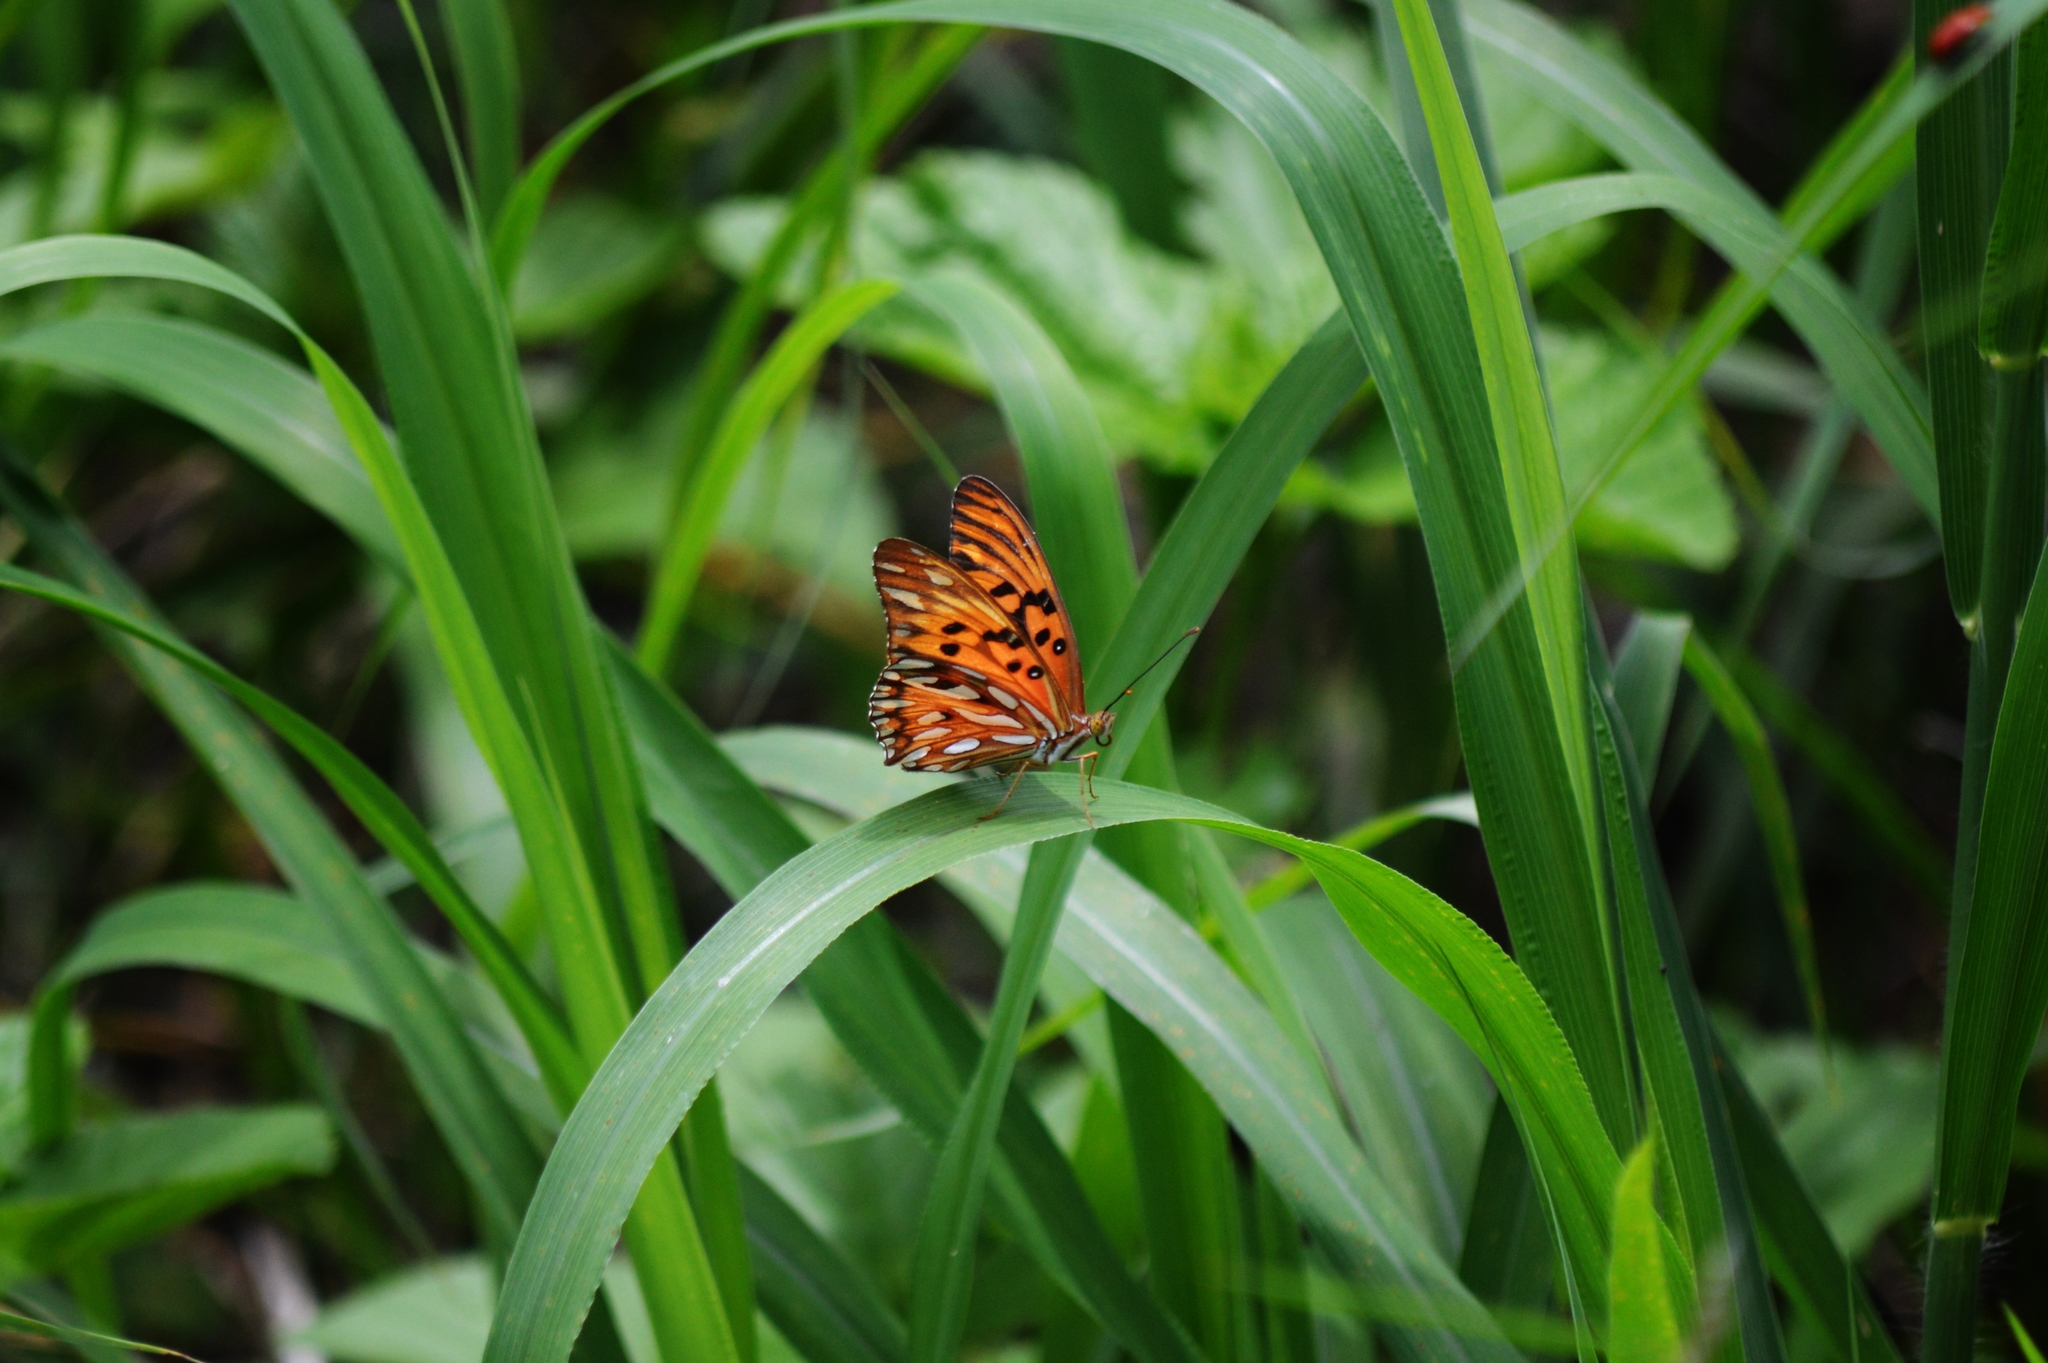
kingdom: Animalia
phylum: Arthropoda
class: Insecta
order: Lepidoptera
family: Nymphalidae
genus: Dione
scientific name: Dione vanillae
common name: Gulf fritillary
